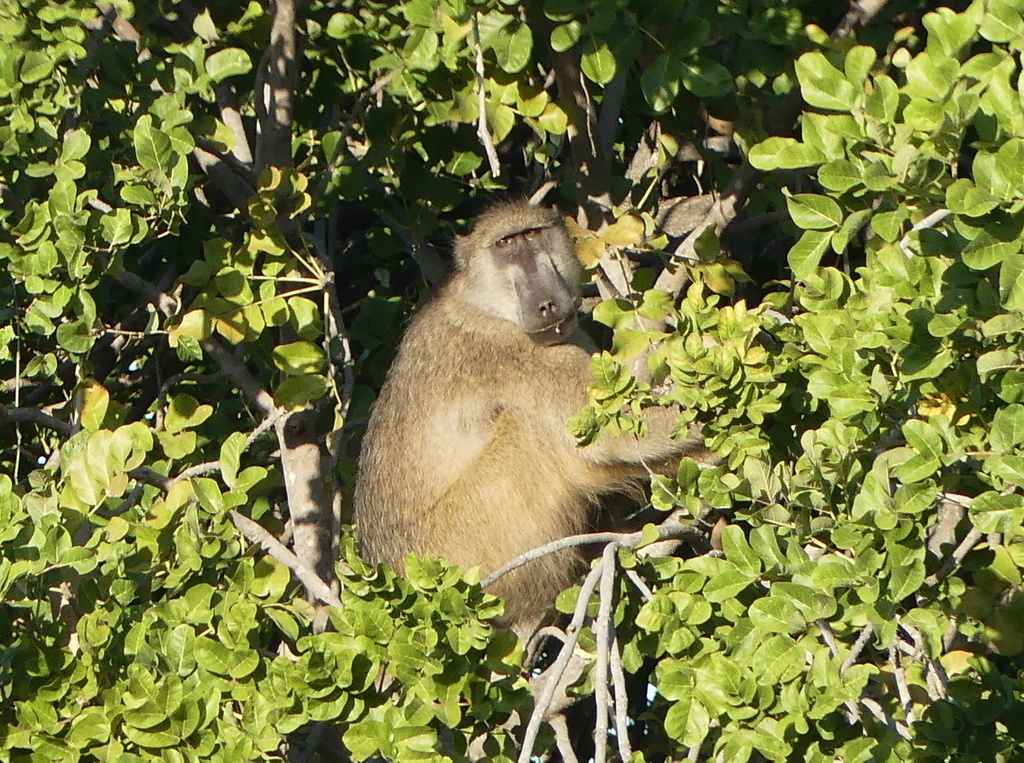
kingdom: Animalia
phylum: Chordata
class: Mammalia
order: Primates
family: Cercopithecidae
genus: Papio
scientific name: Papio ursinus
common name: Chacma baboon
